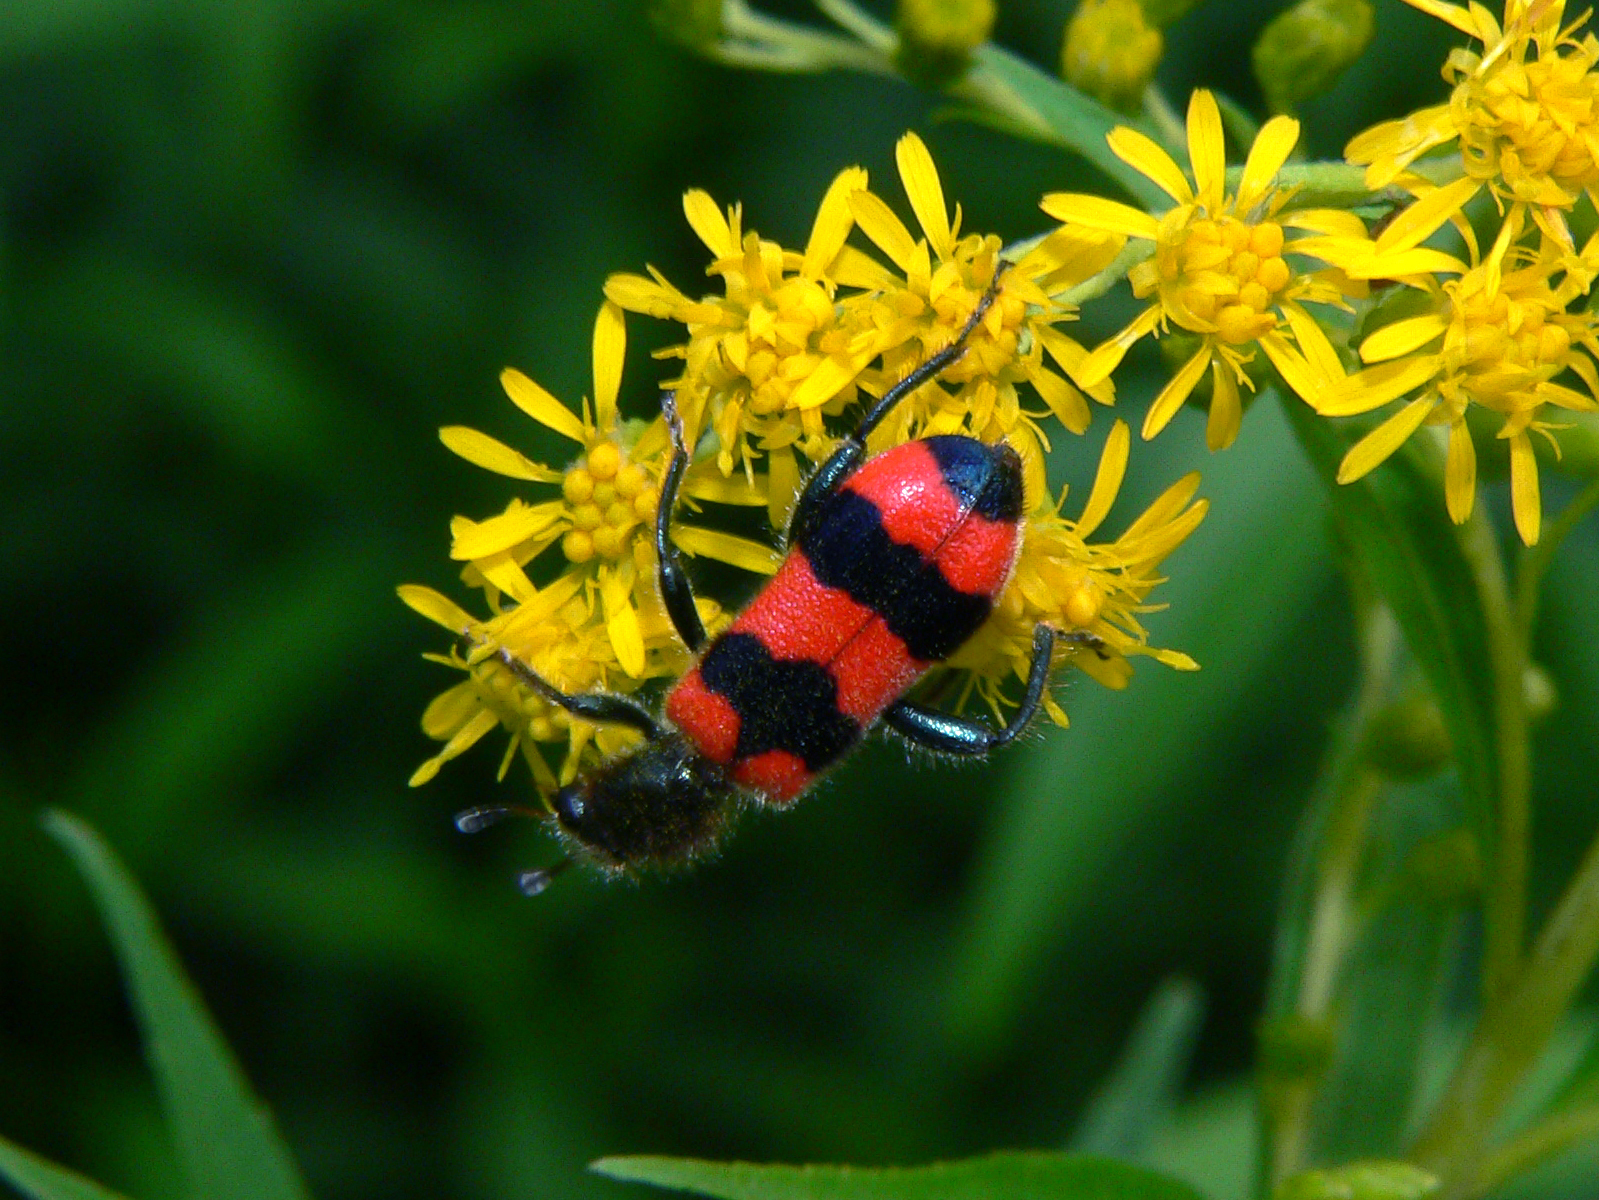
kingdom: Animalia
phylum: Arthropoda
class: Insecta
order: Coleoptera
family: Cleridae
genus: Trichodes
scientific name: Trichodes apiarius
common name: Bee-eating beetle
